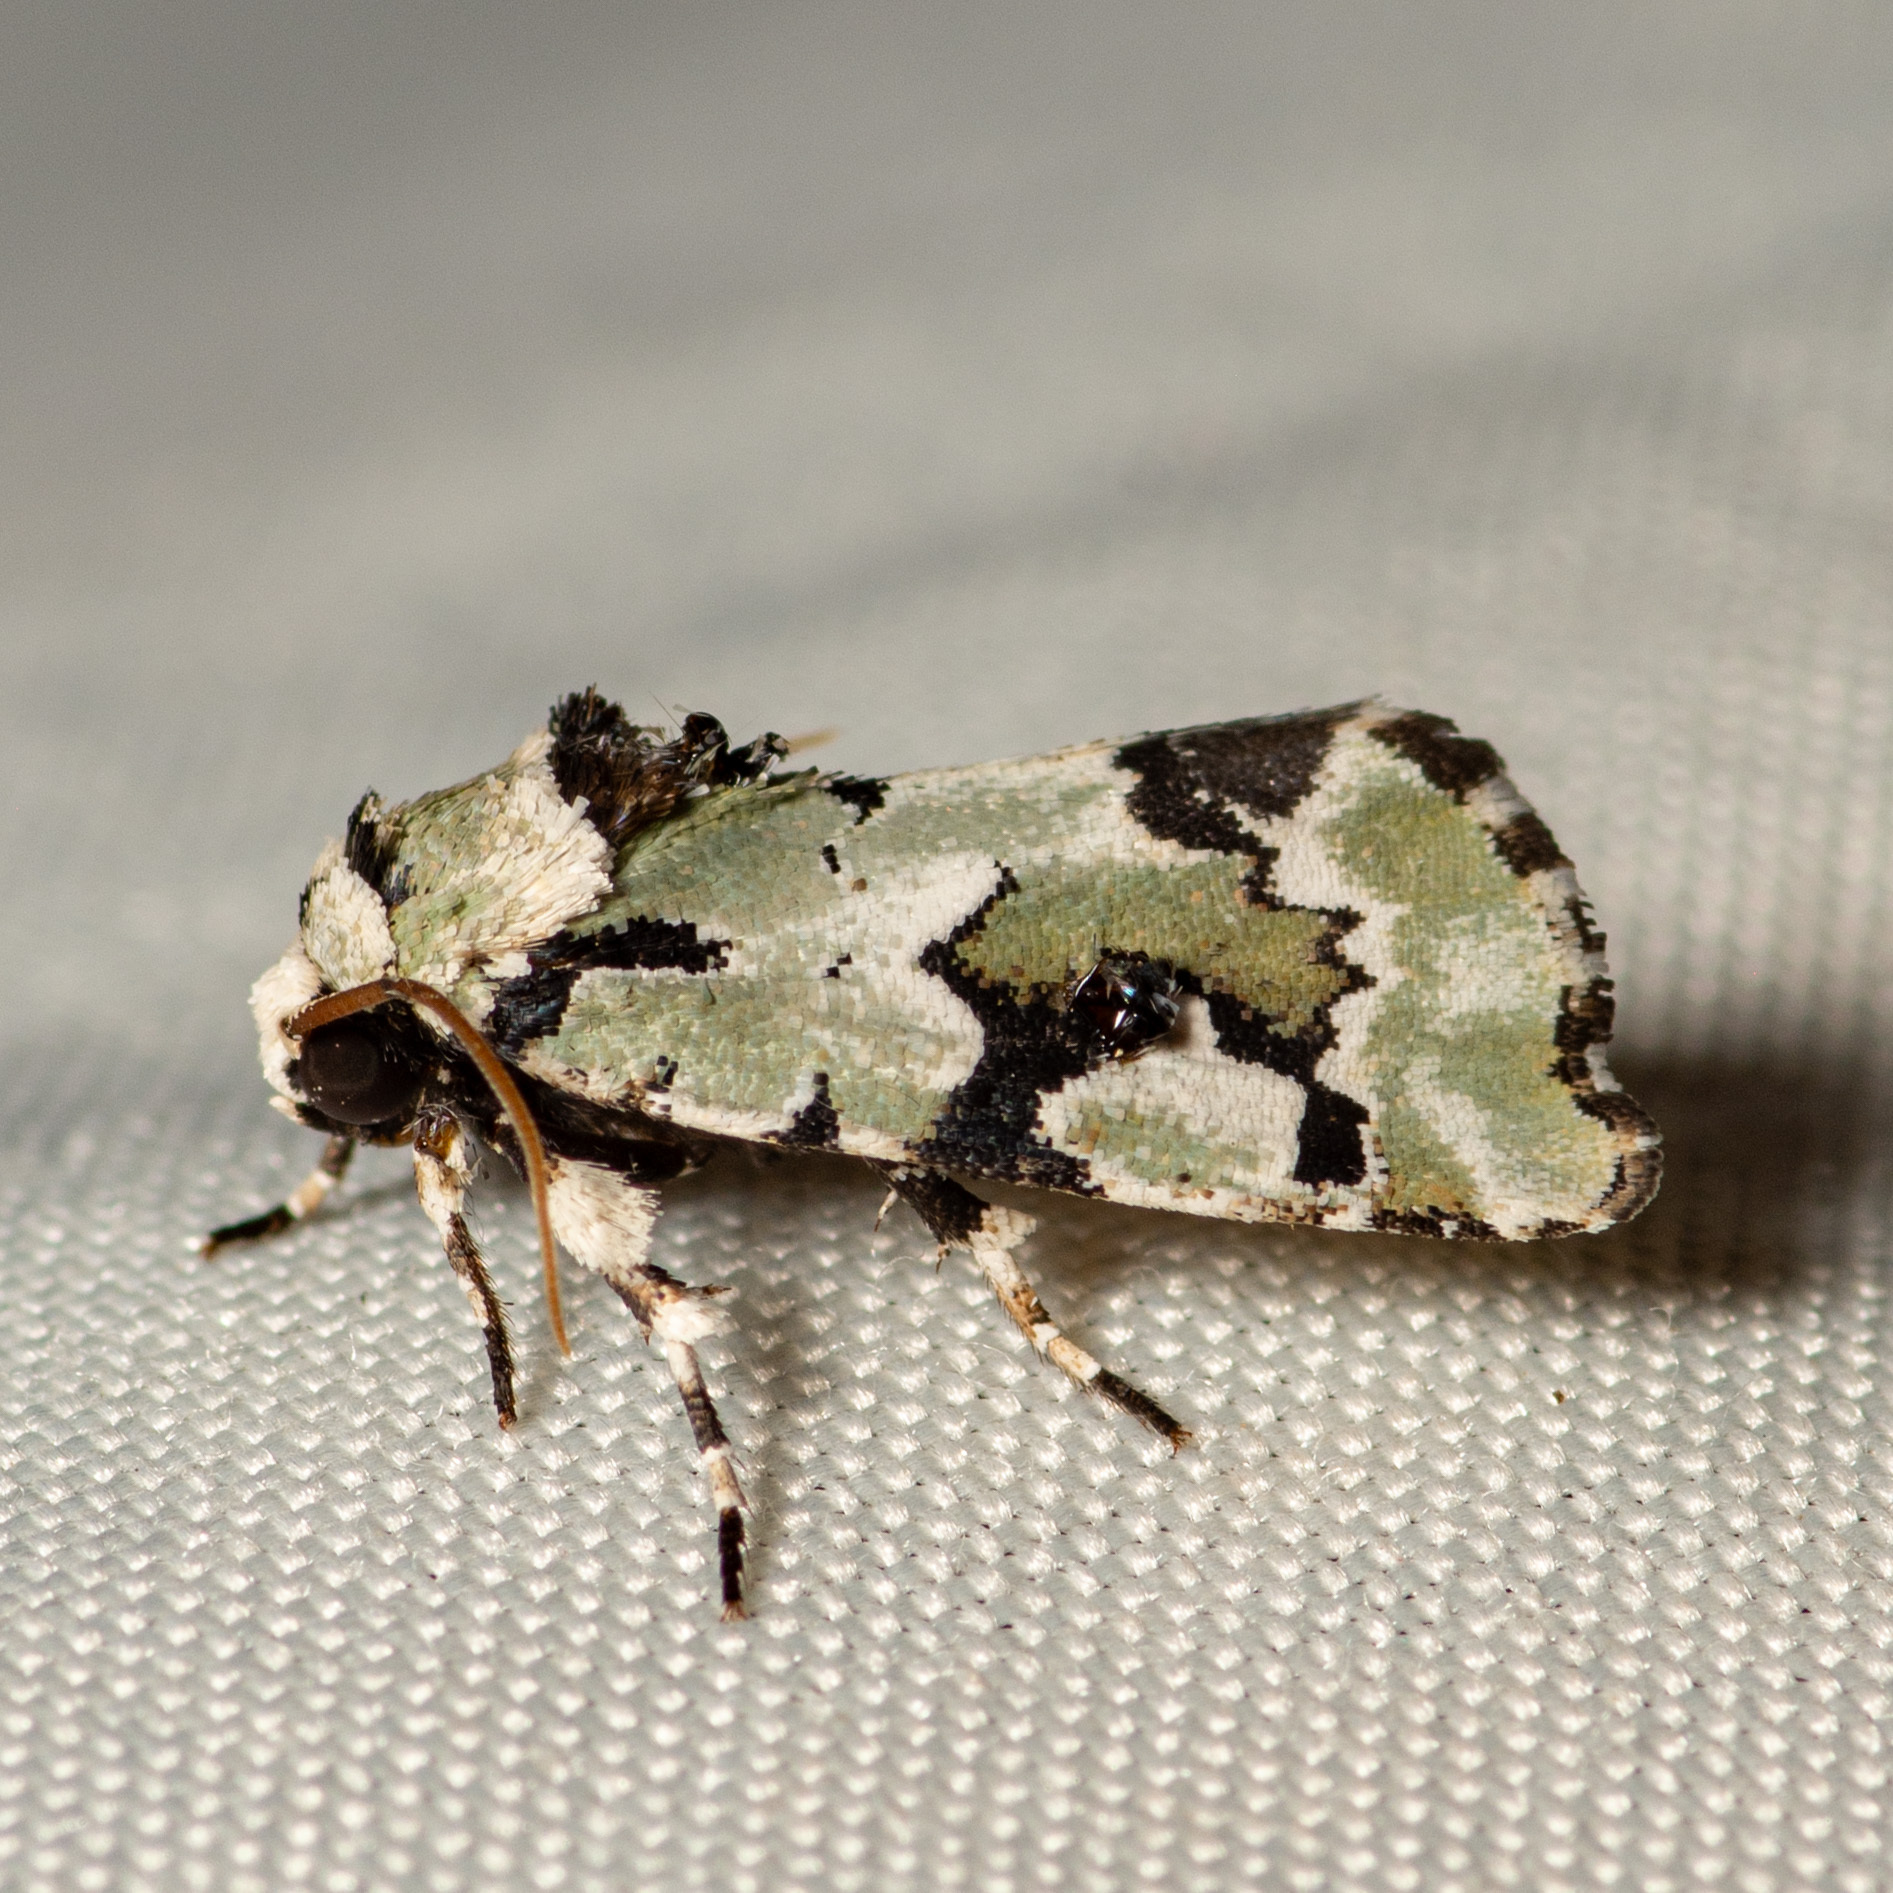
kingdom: Animalia
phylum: Arthropoda
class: Insecta
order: Lepidoptera
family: Noctuidae
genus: Emarginea
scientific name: Emarginea percara
